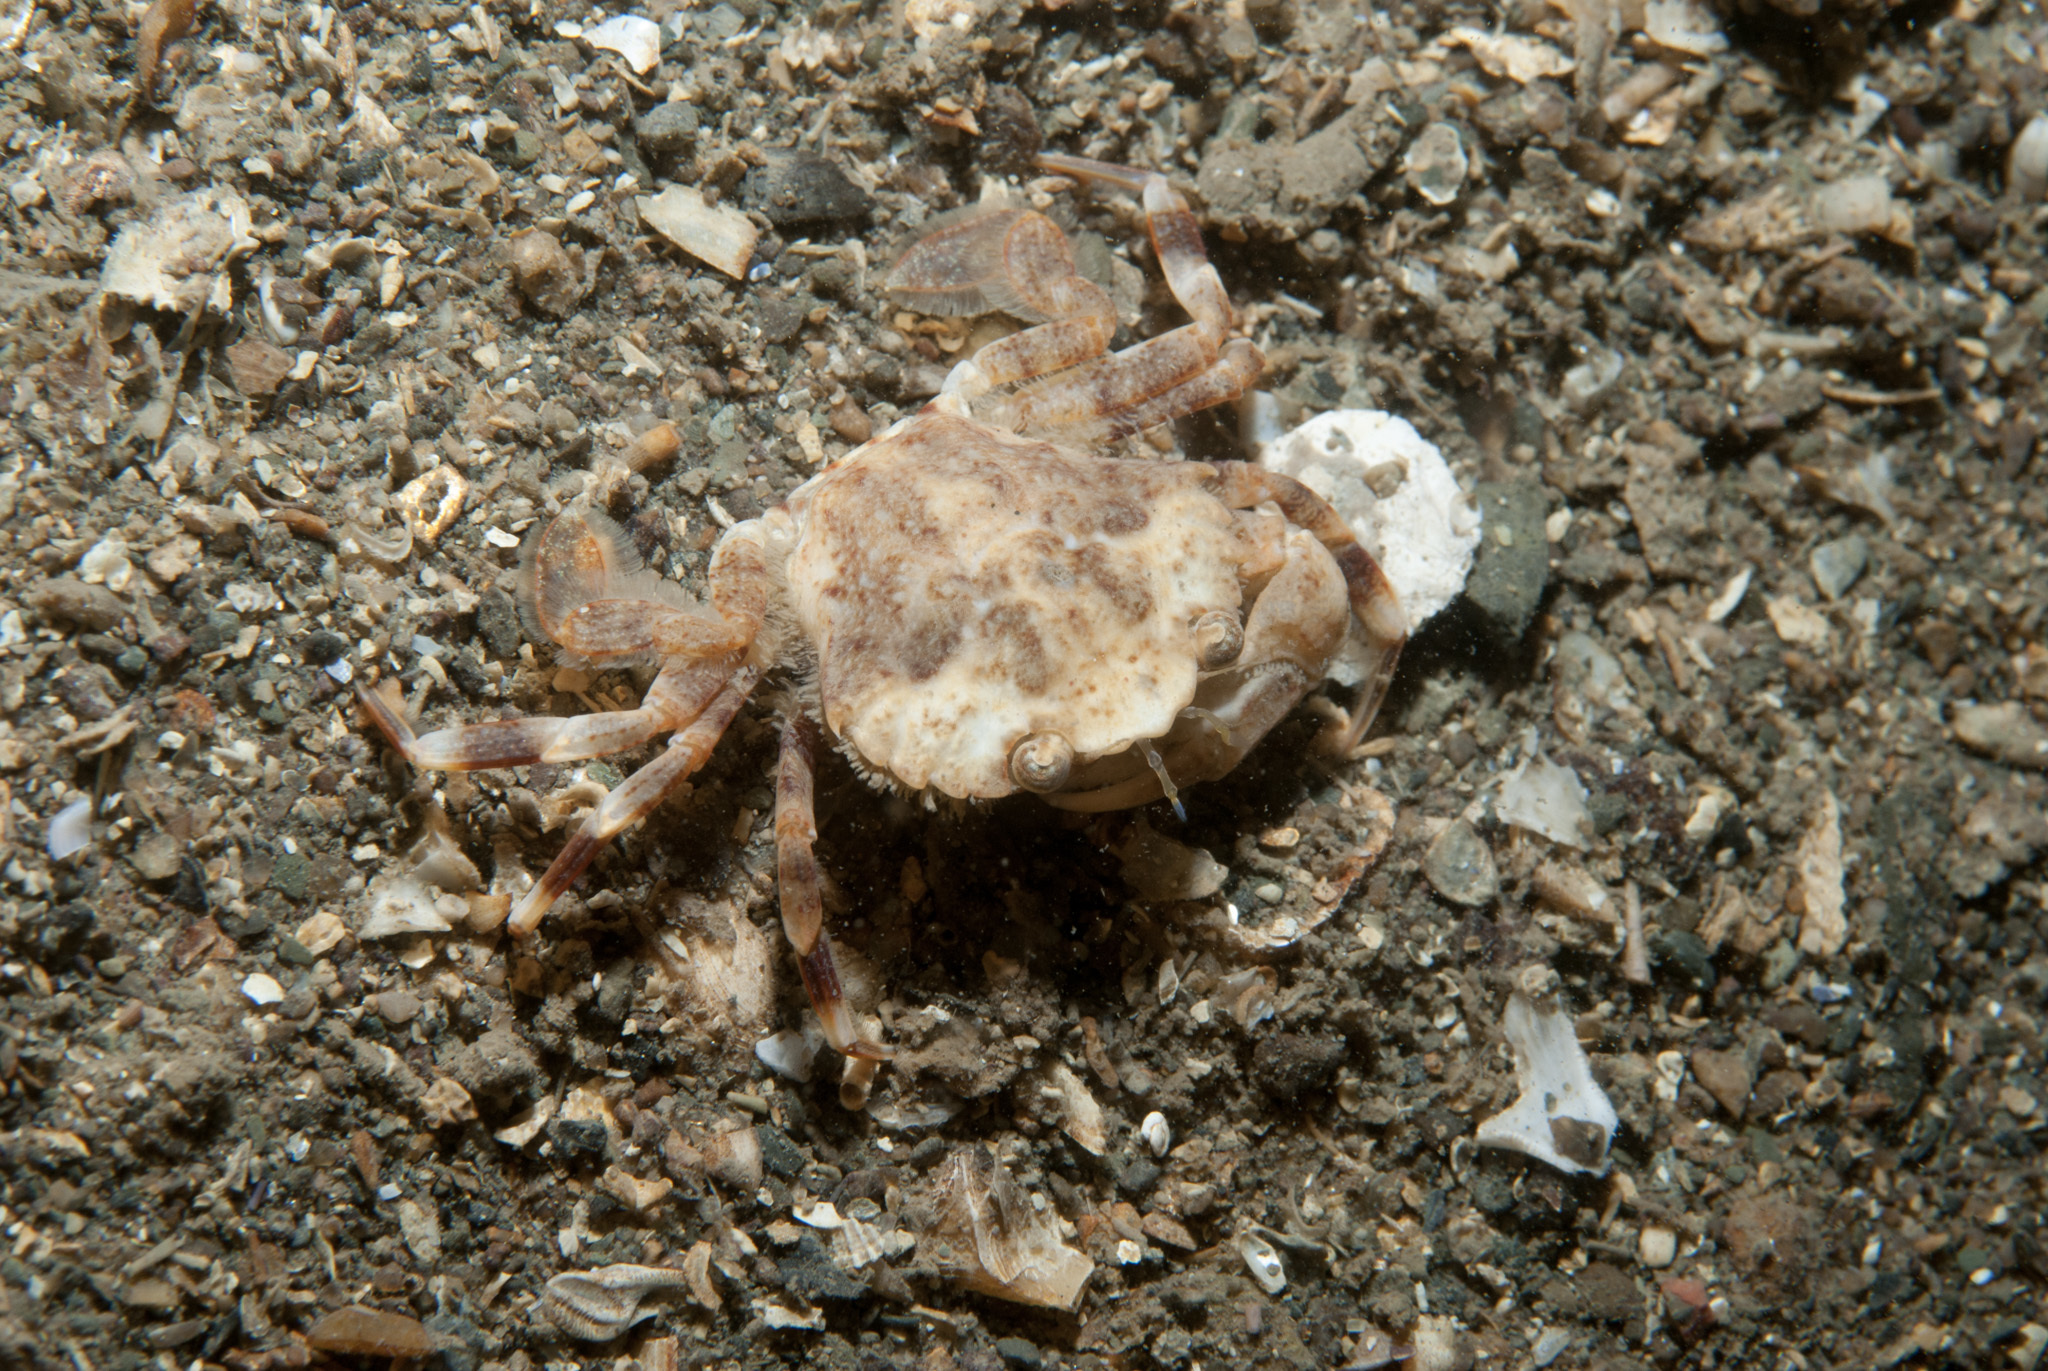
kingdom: Animalia
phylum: Arthropoda
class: Malacostraca
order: Decapoda
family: Polybiidae
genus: Liocarcinus
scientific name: Liocarcinus pusillus
